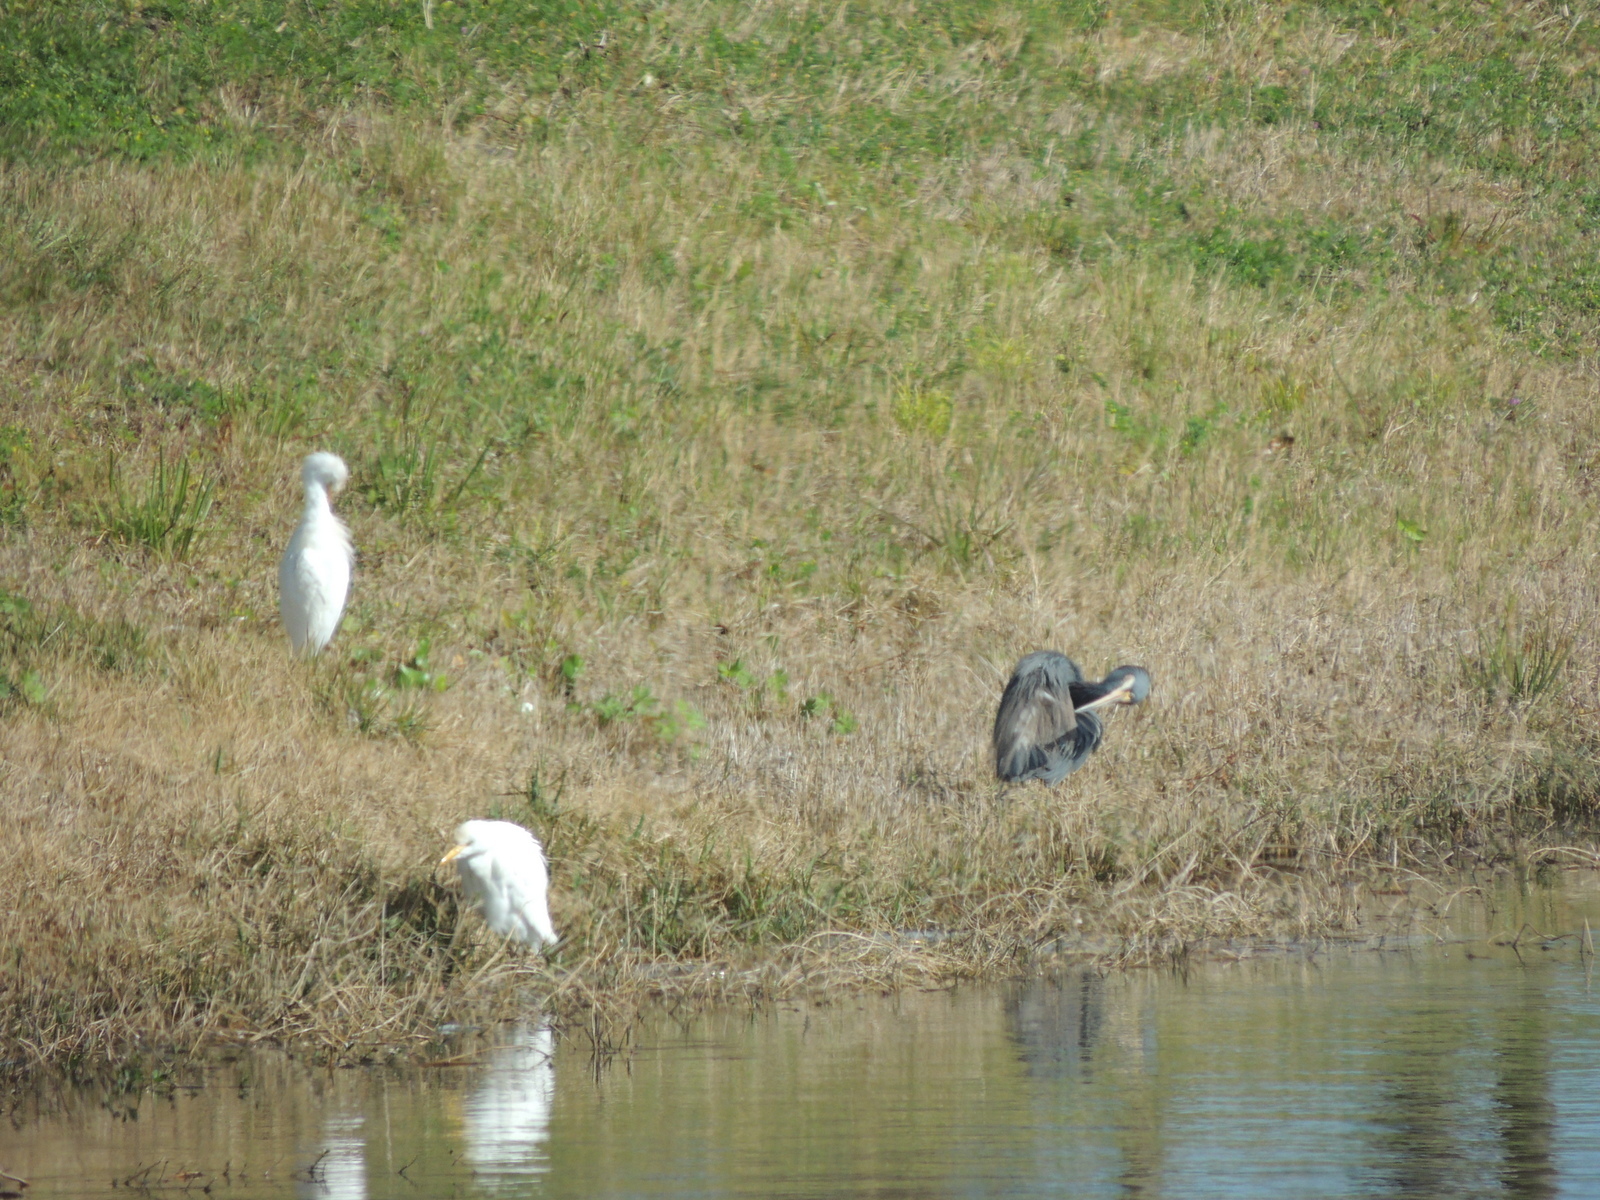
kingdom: Animalia
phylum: Chordata
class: Aves
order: Pelecaniformes
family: Ardeidae
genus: Egretta
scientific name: Egretta tricolor
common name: Tricolored heron
